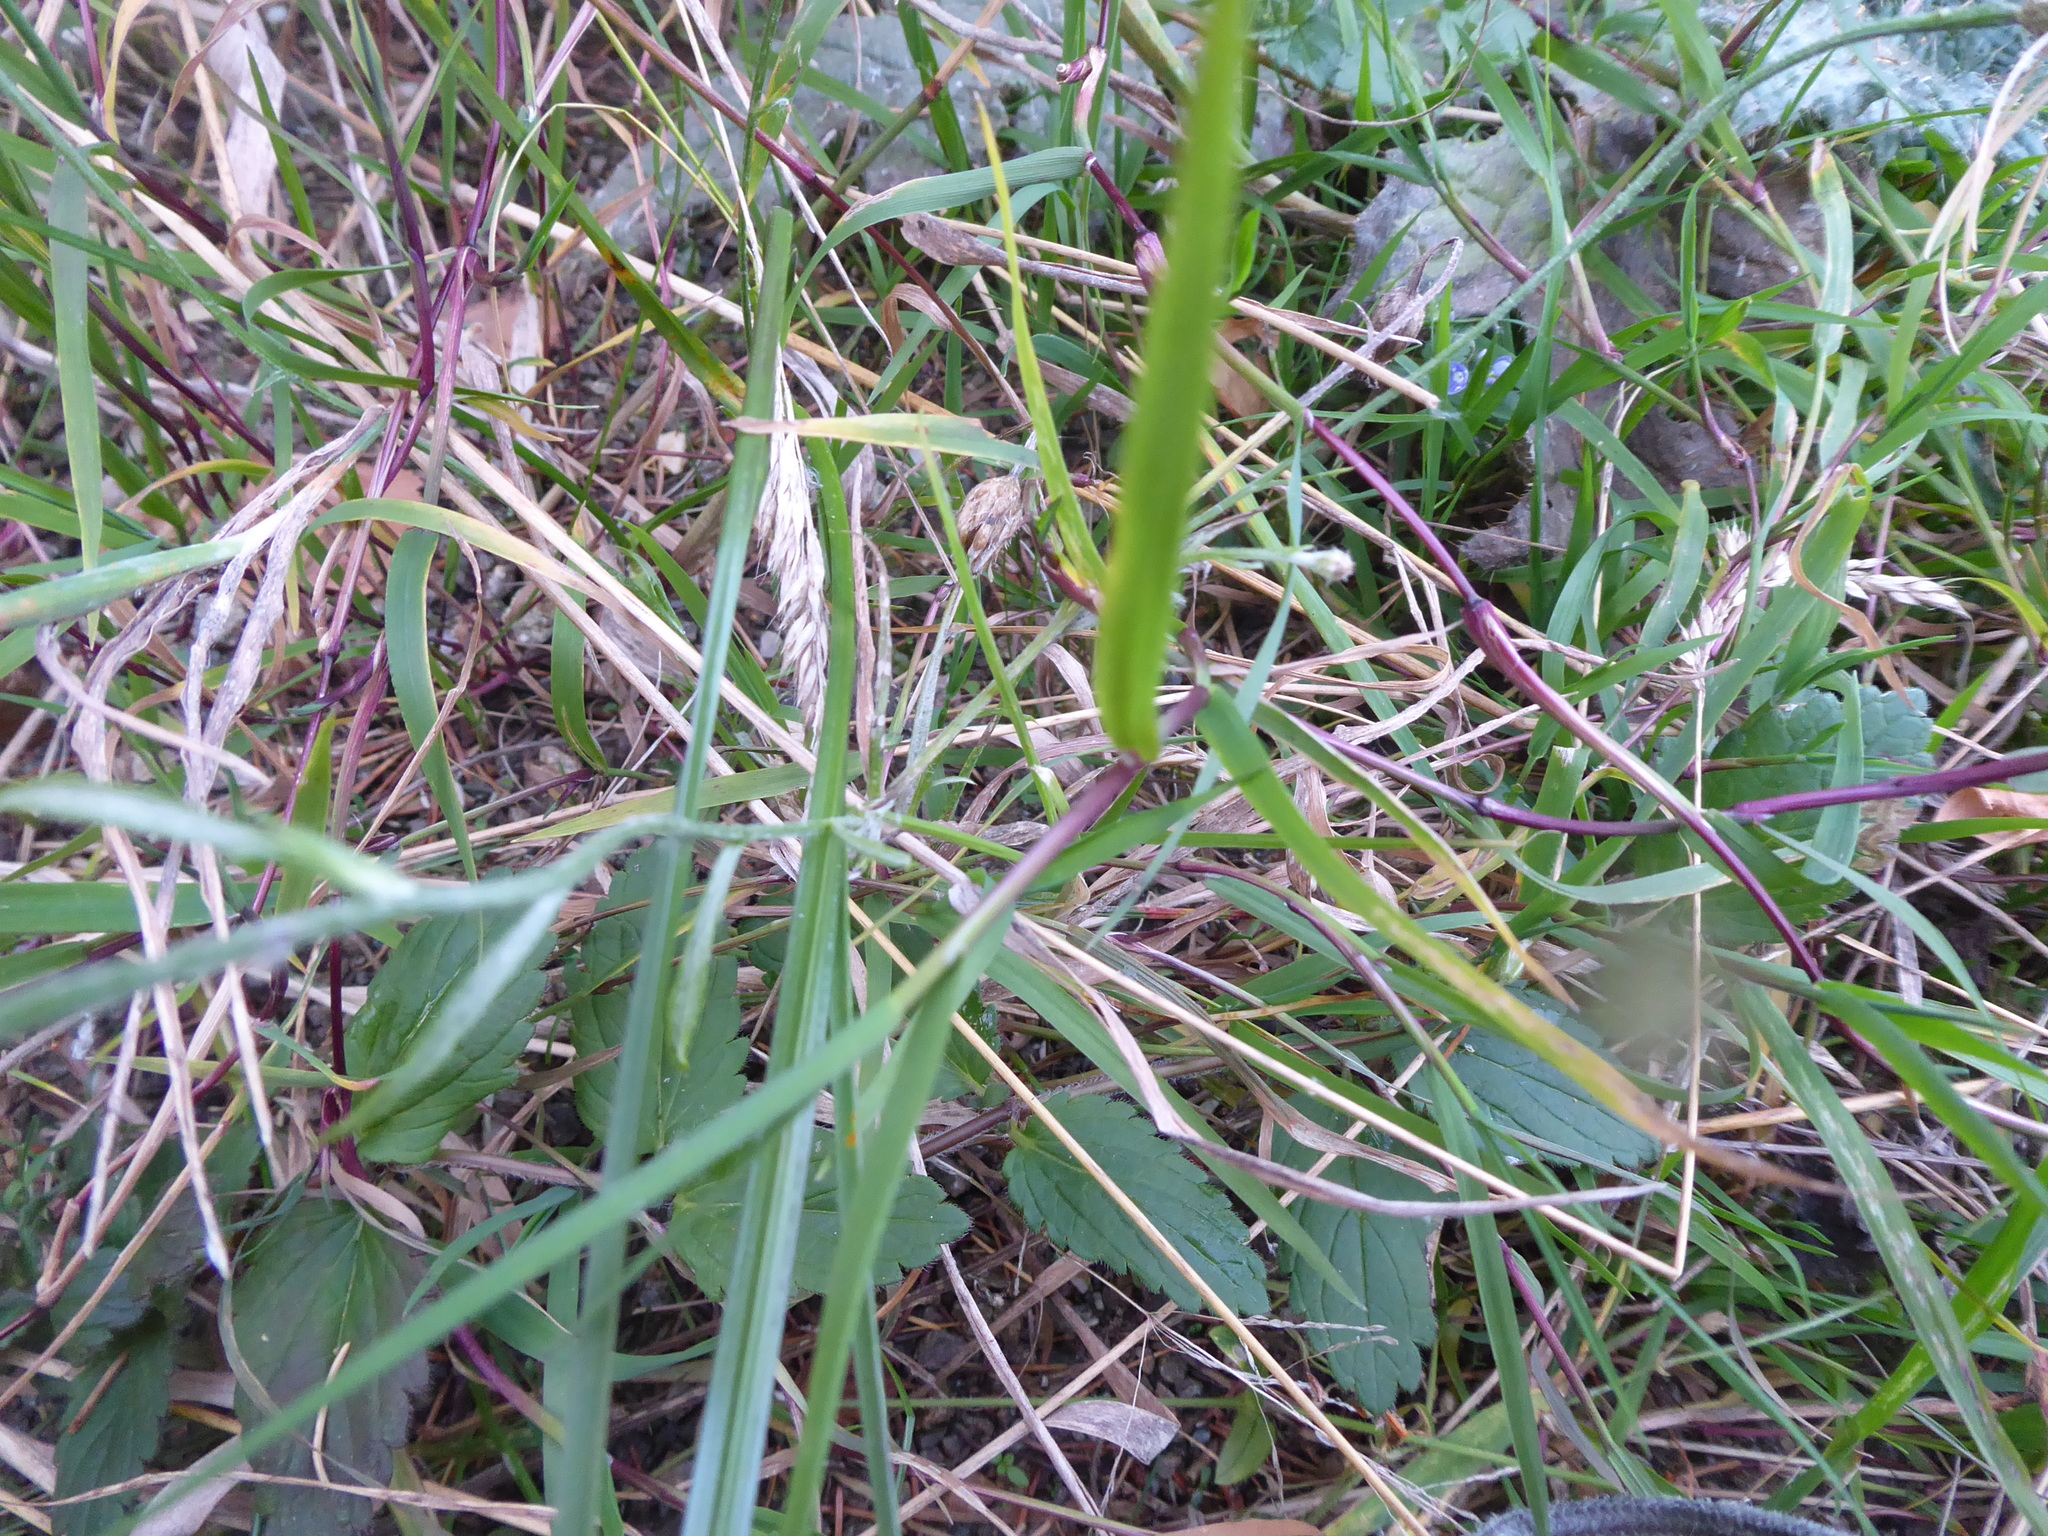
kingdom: Plantae
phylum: Tracheophyta
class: Magnoliopsida
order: Asterales
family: Asteraceae
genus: Centaurea
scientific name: Centaurea cyanus
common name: Cornflower
